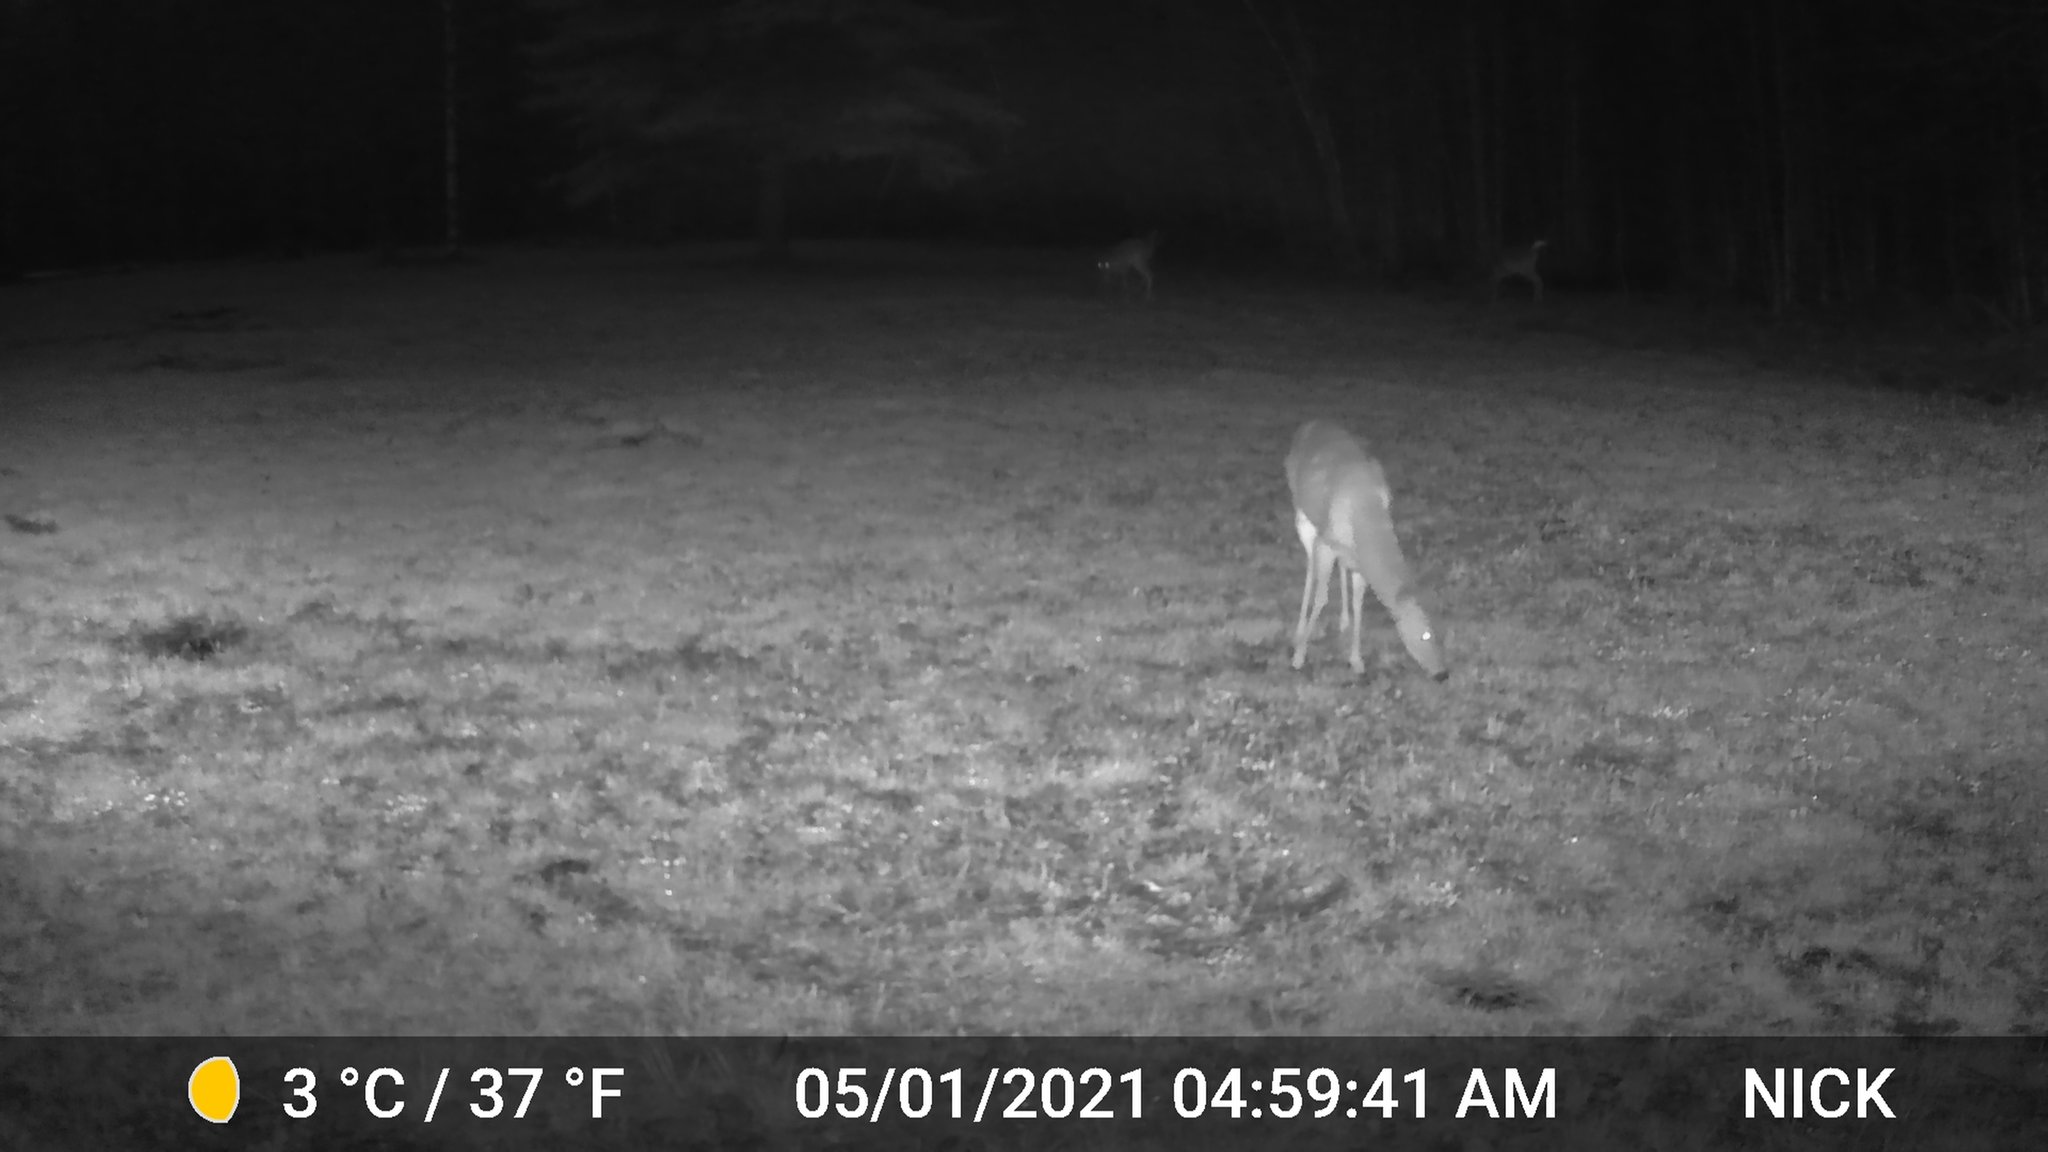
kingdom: Animalia
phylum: Chordata
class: Mammalia
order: Artiodactyla
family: Cervidae
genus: Odocoileus
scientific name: Odocoileus virginianus
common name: White-tailed deer
